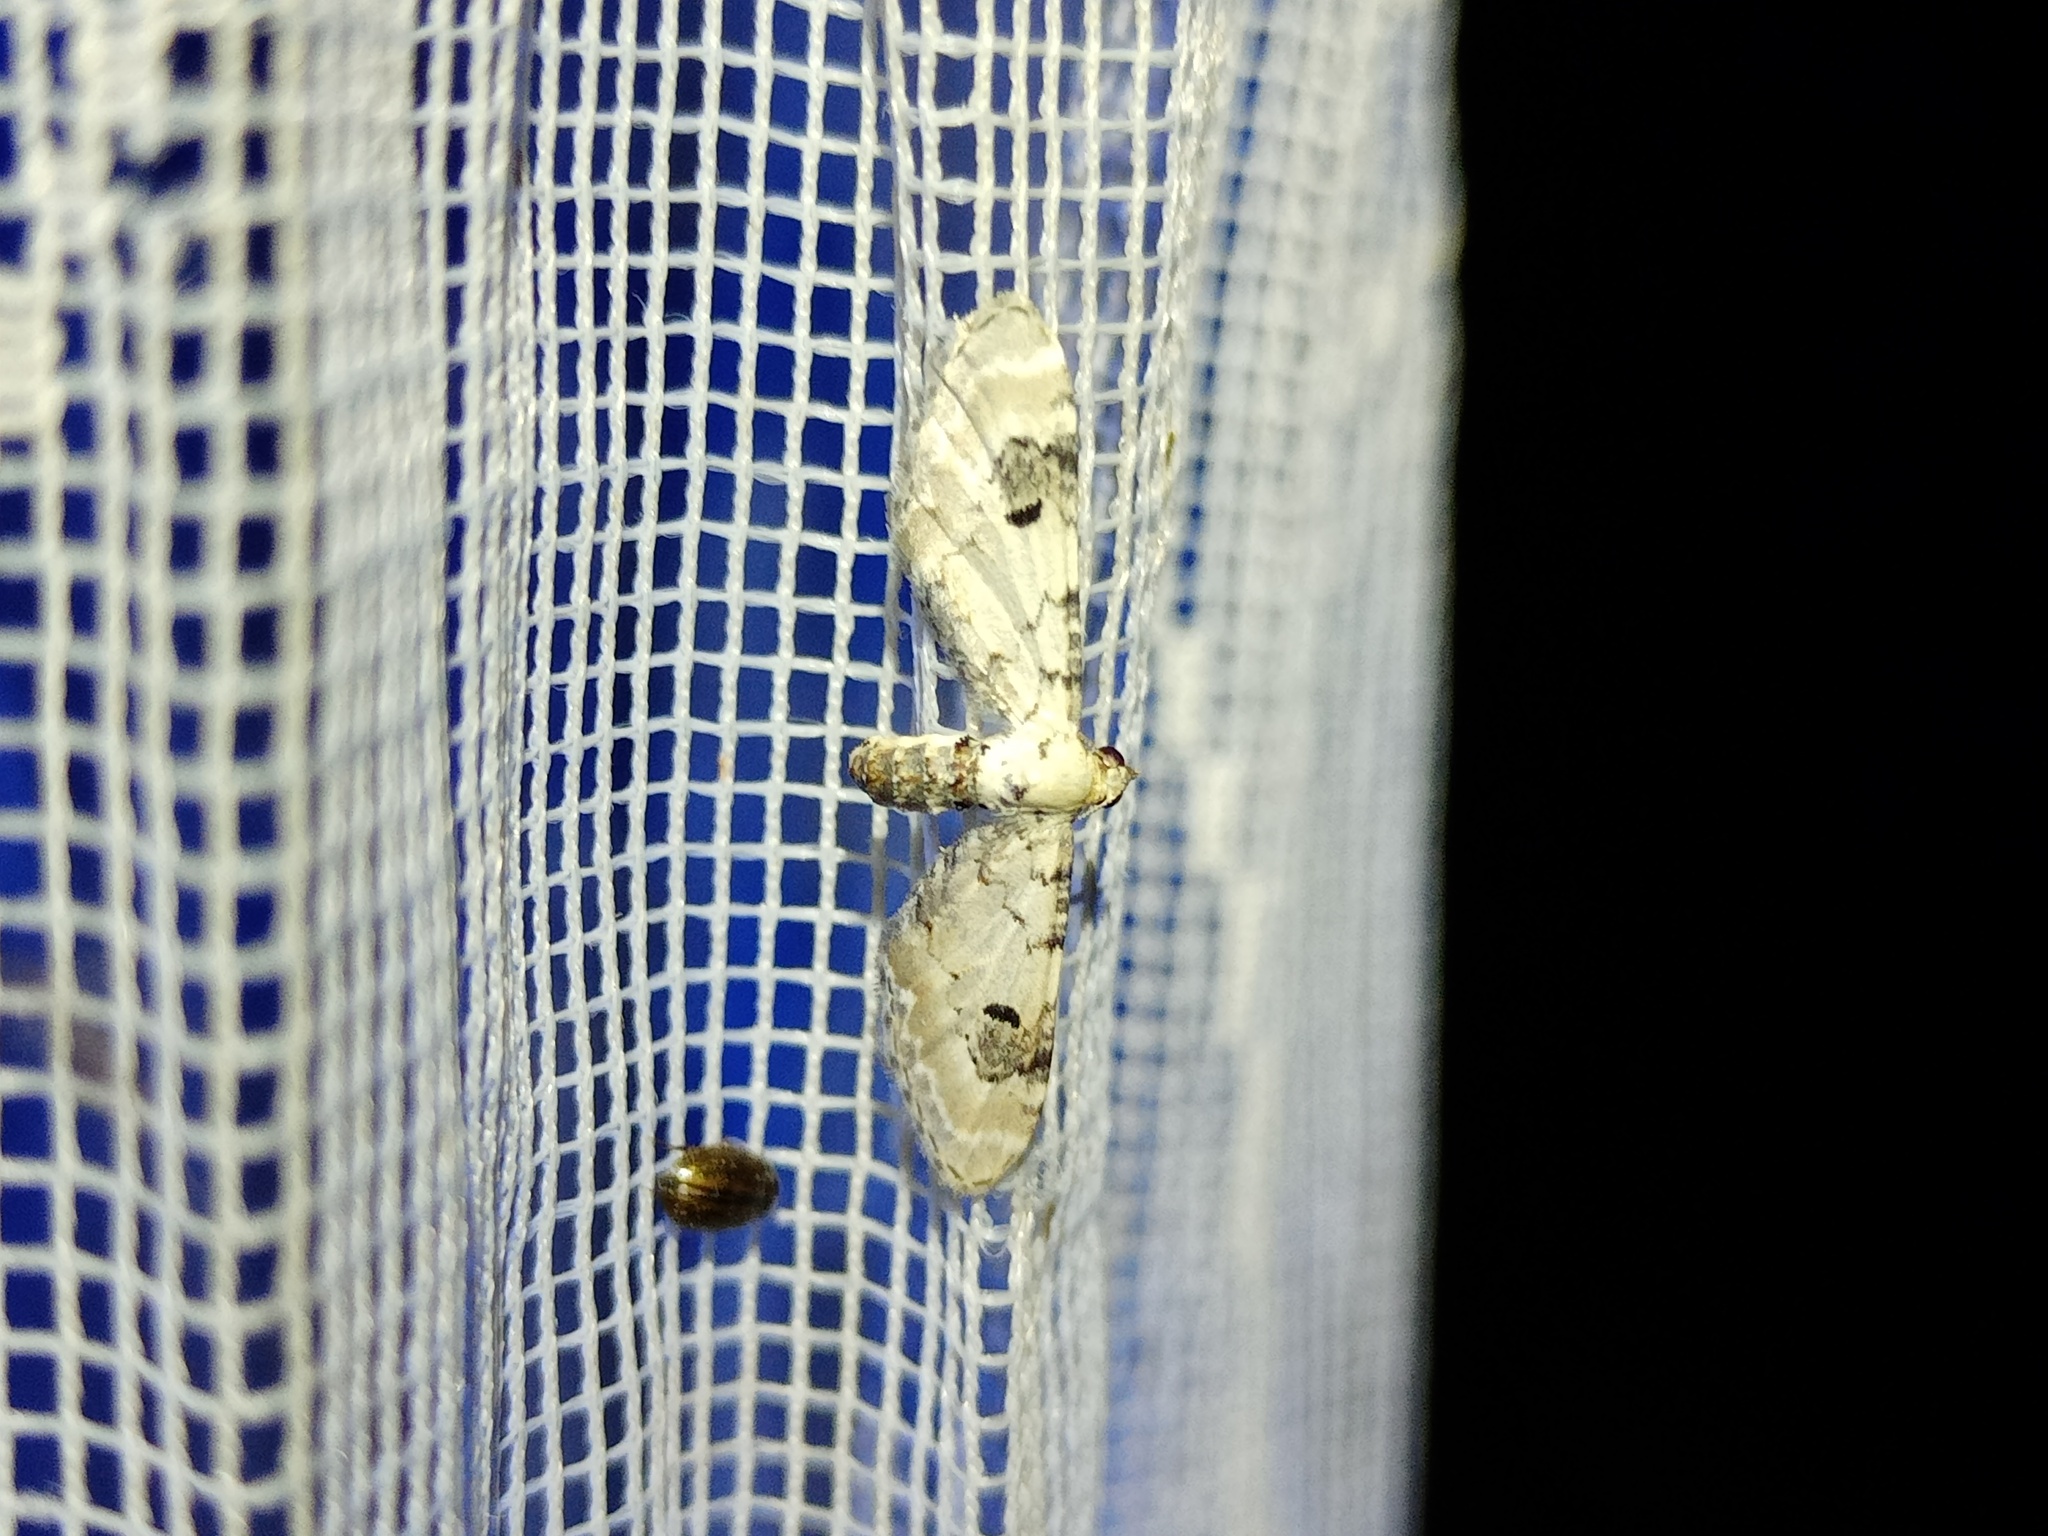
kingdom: Animalia
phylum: Arthropoda
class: Insecta
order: Lepidoptera
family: Geometridae
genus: Eupithecia
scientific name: Eupithecia centaureata
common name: Lime-speck pug
